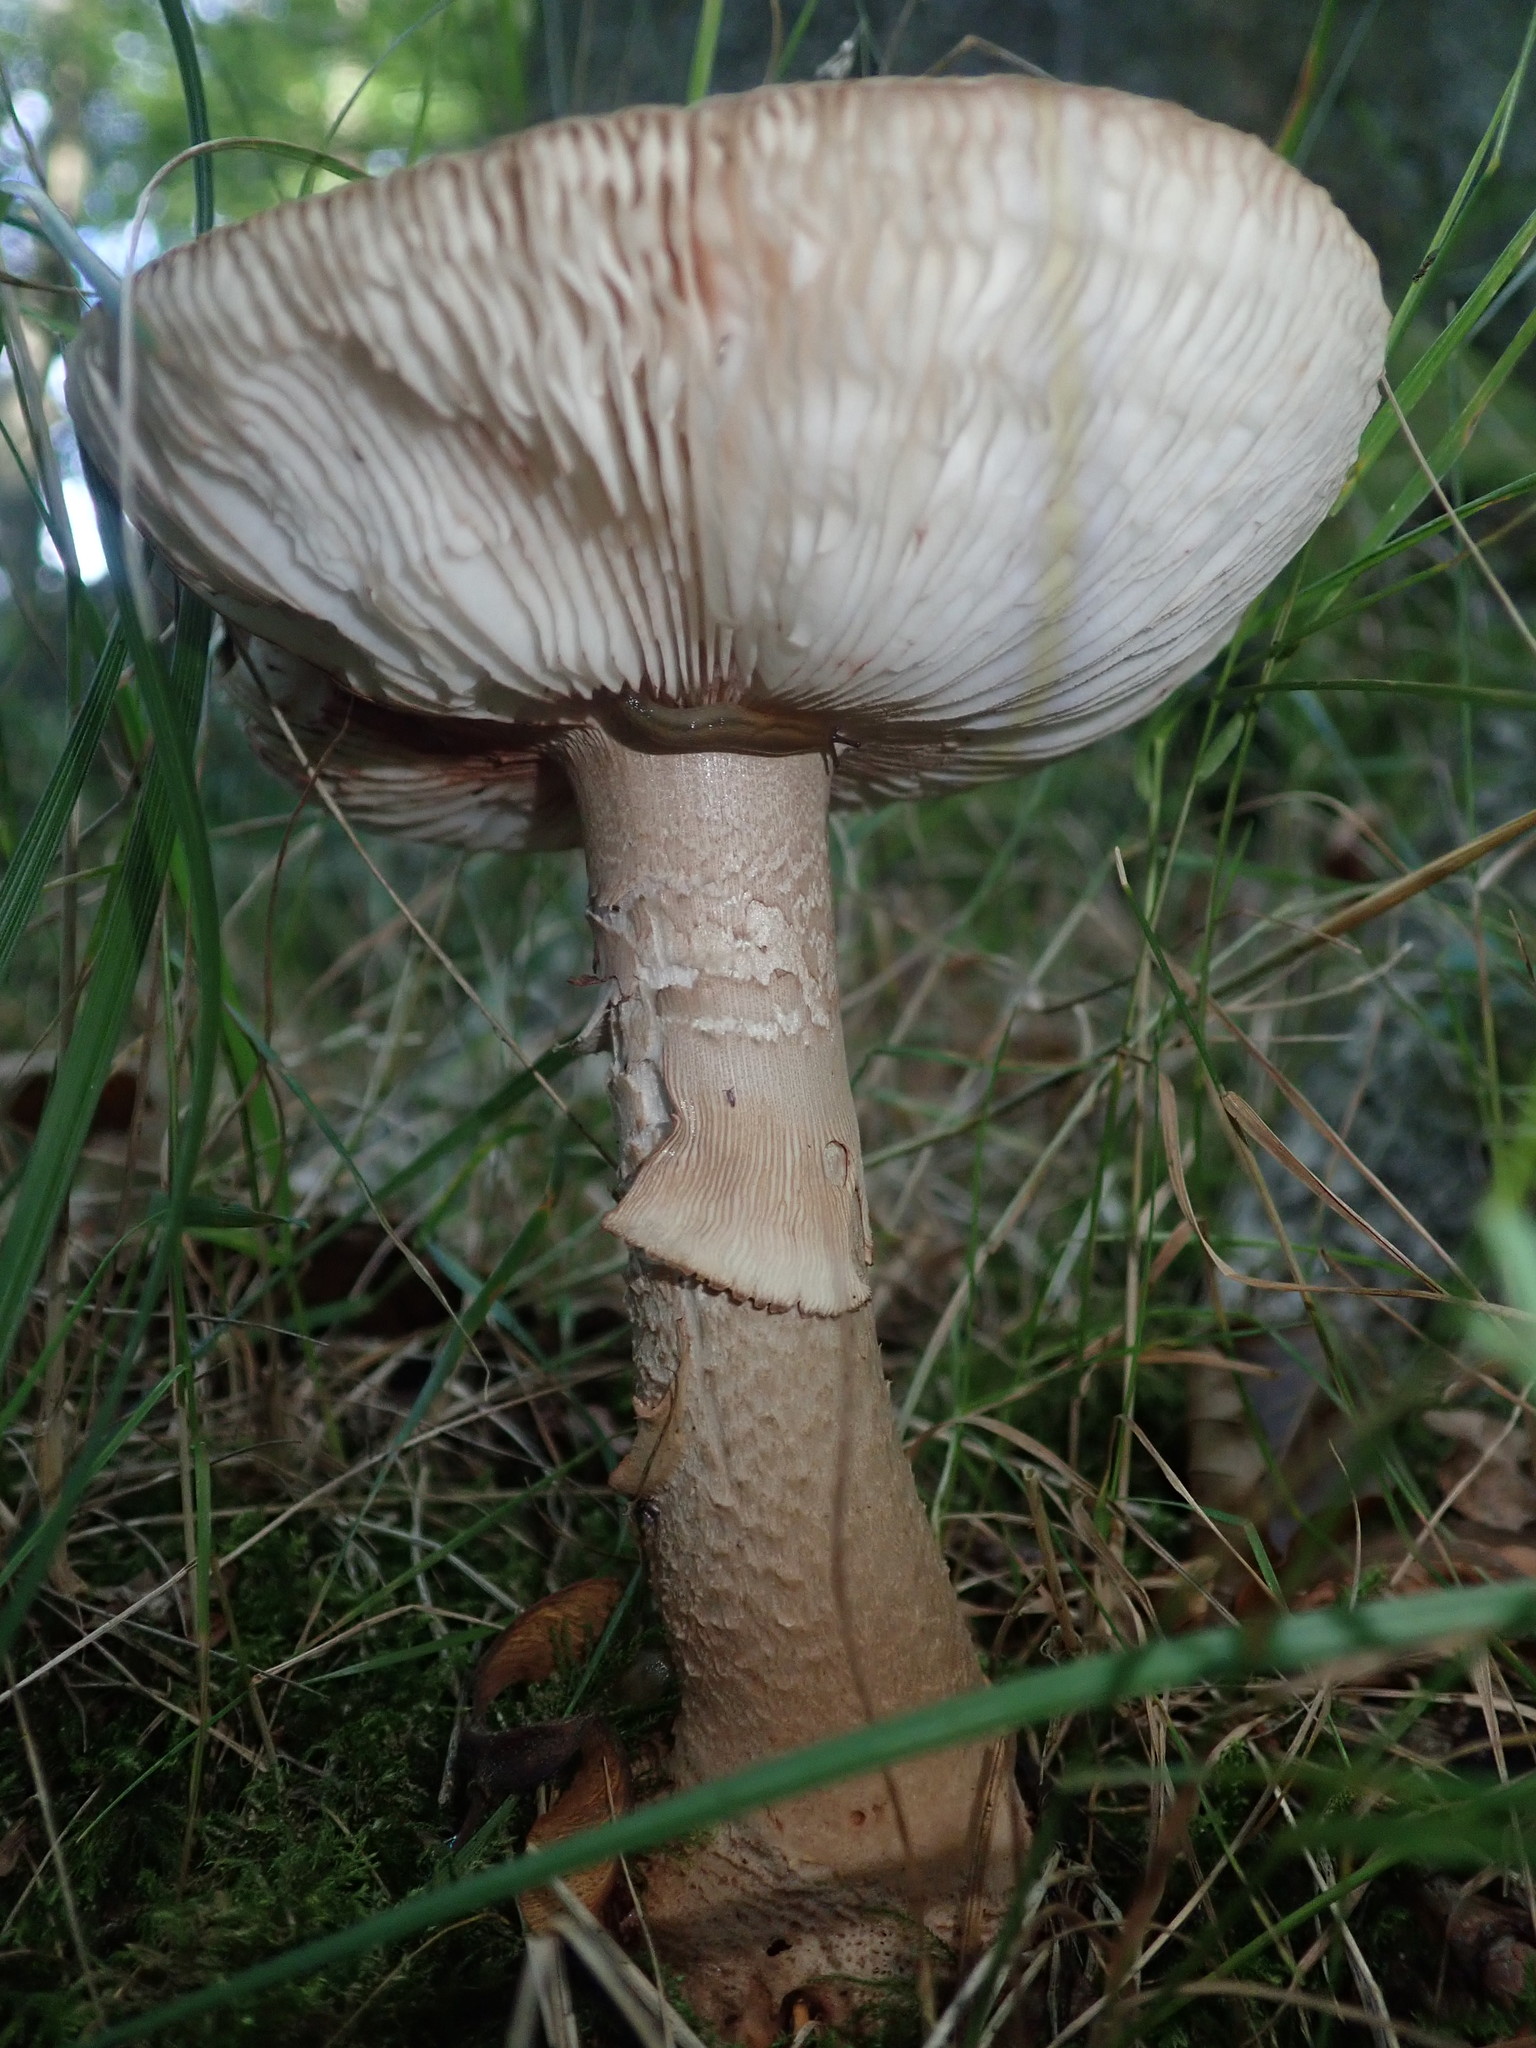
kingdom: Fungi
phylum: Basidiomycota
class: Agaricomycetes
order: Agaricales
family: Amanitaceae
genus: Amanita
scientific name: Amanita rubescens
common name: Blusher
